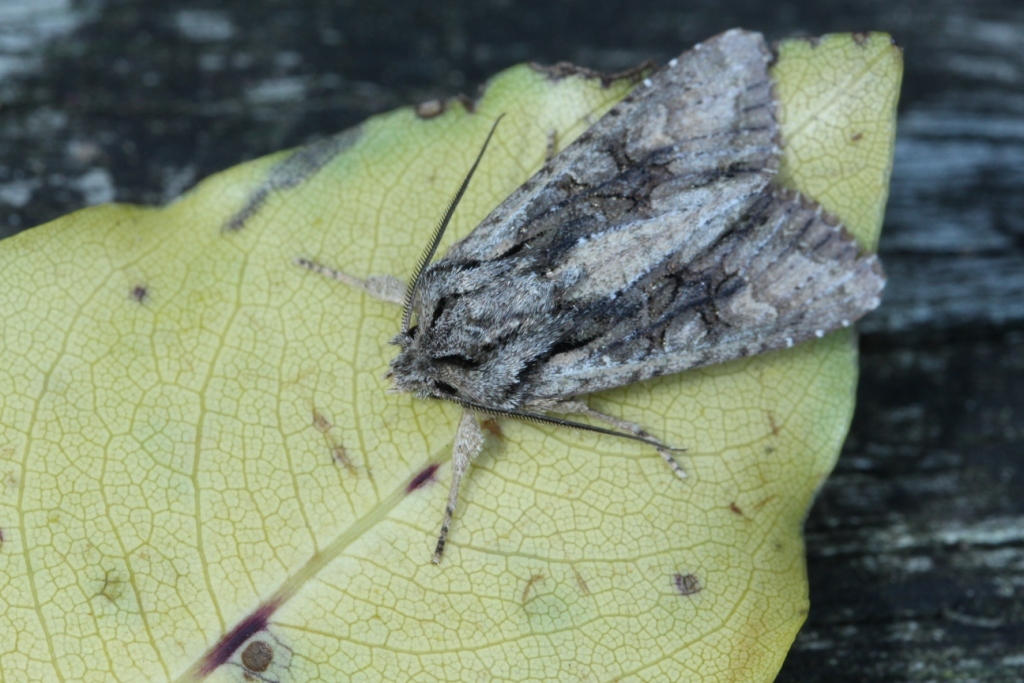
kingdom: Animalia
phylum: Arthropoda
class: Insecta
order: Lepidoptera
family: Noctuidae
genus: Ichneutica
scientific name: Ichneutica mutans
